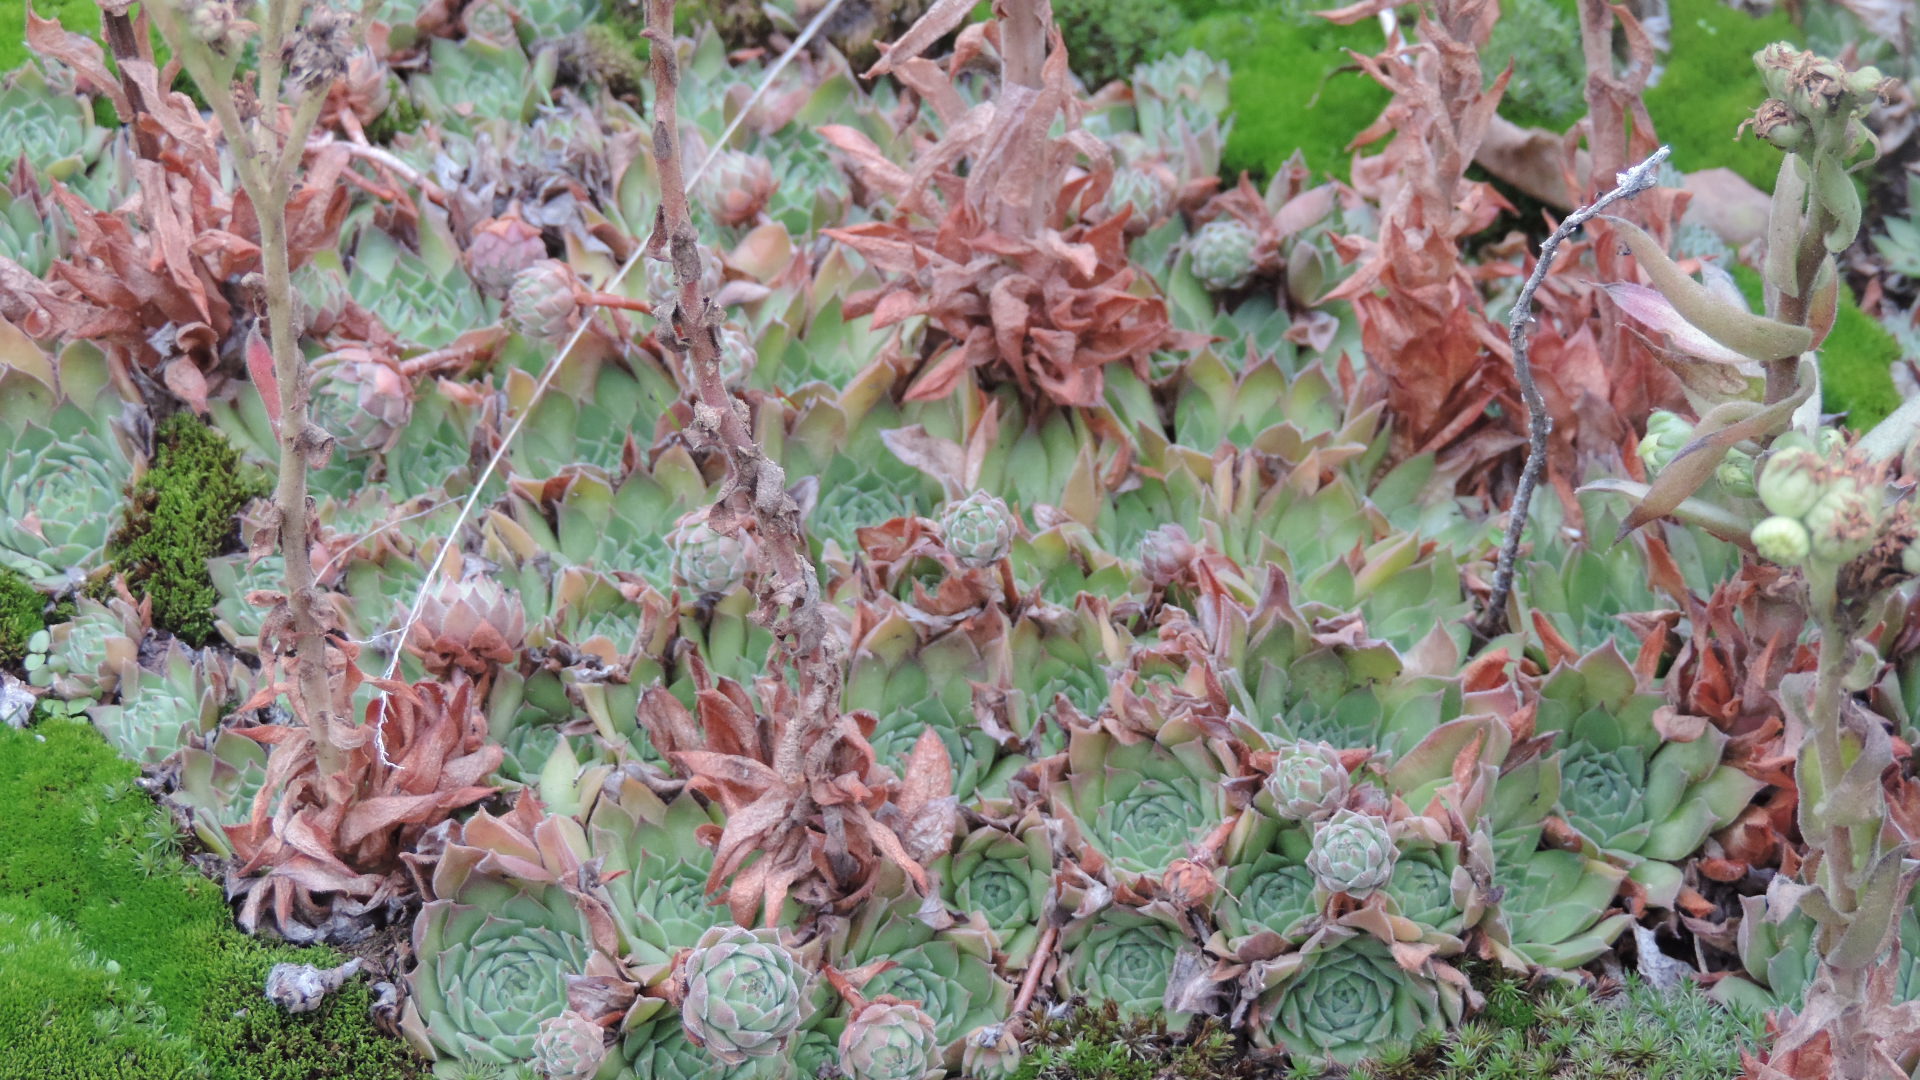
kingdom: Plantae
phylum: Tracheophyta
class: Magnoliopsida
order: Saxifragales
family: Crassulaceae
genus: Sempervivum
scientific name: Sempervivum ruthenicum
